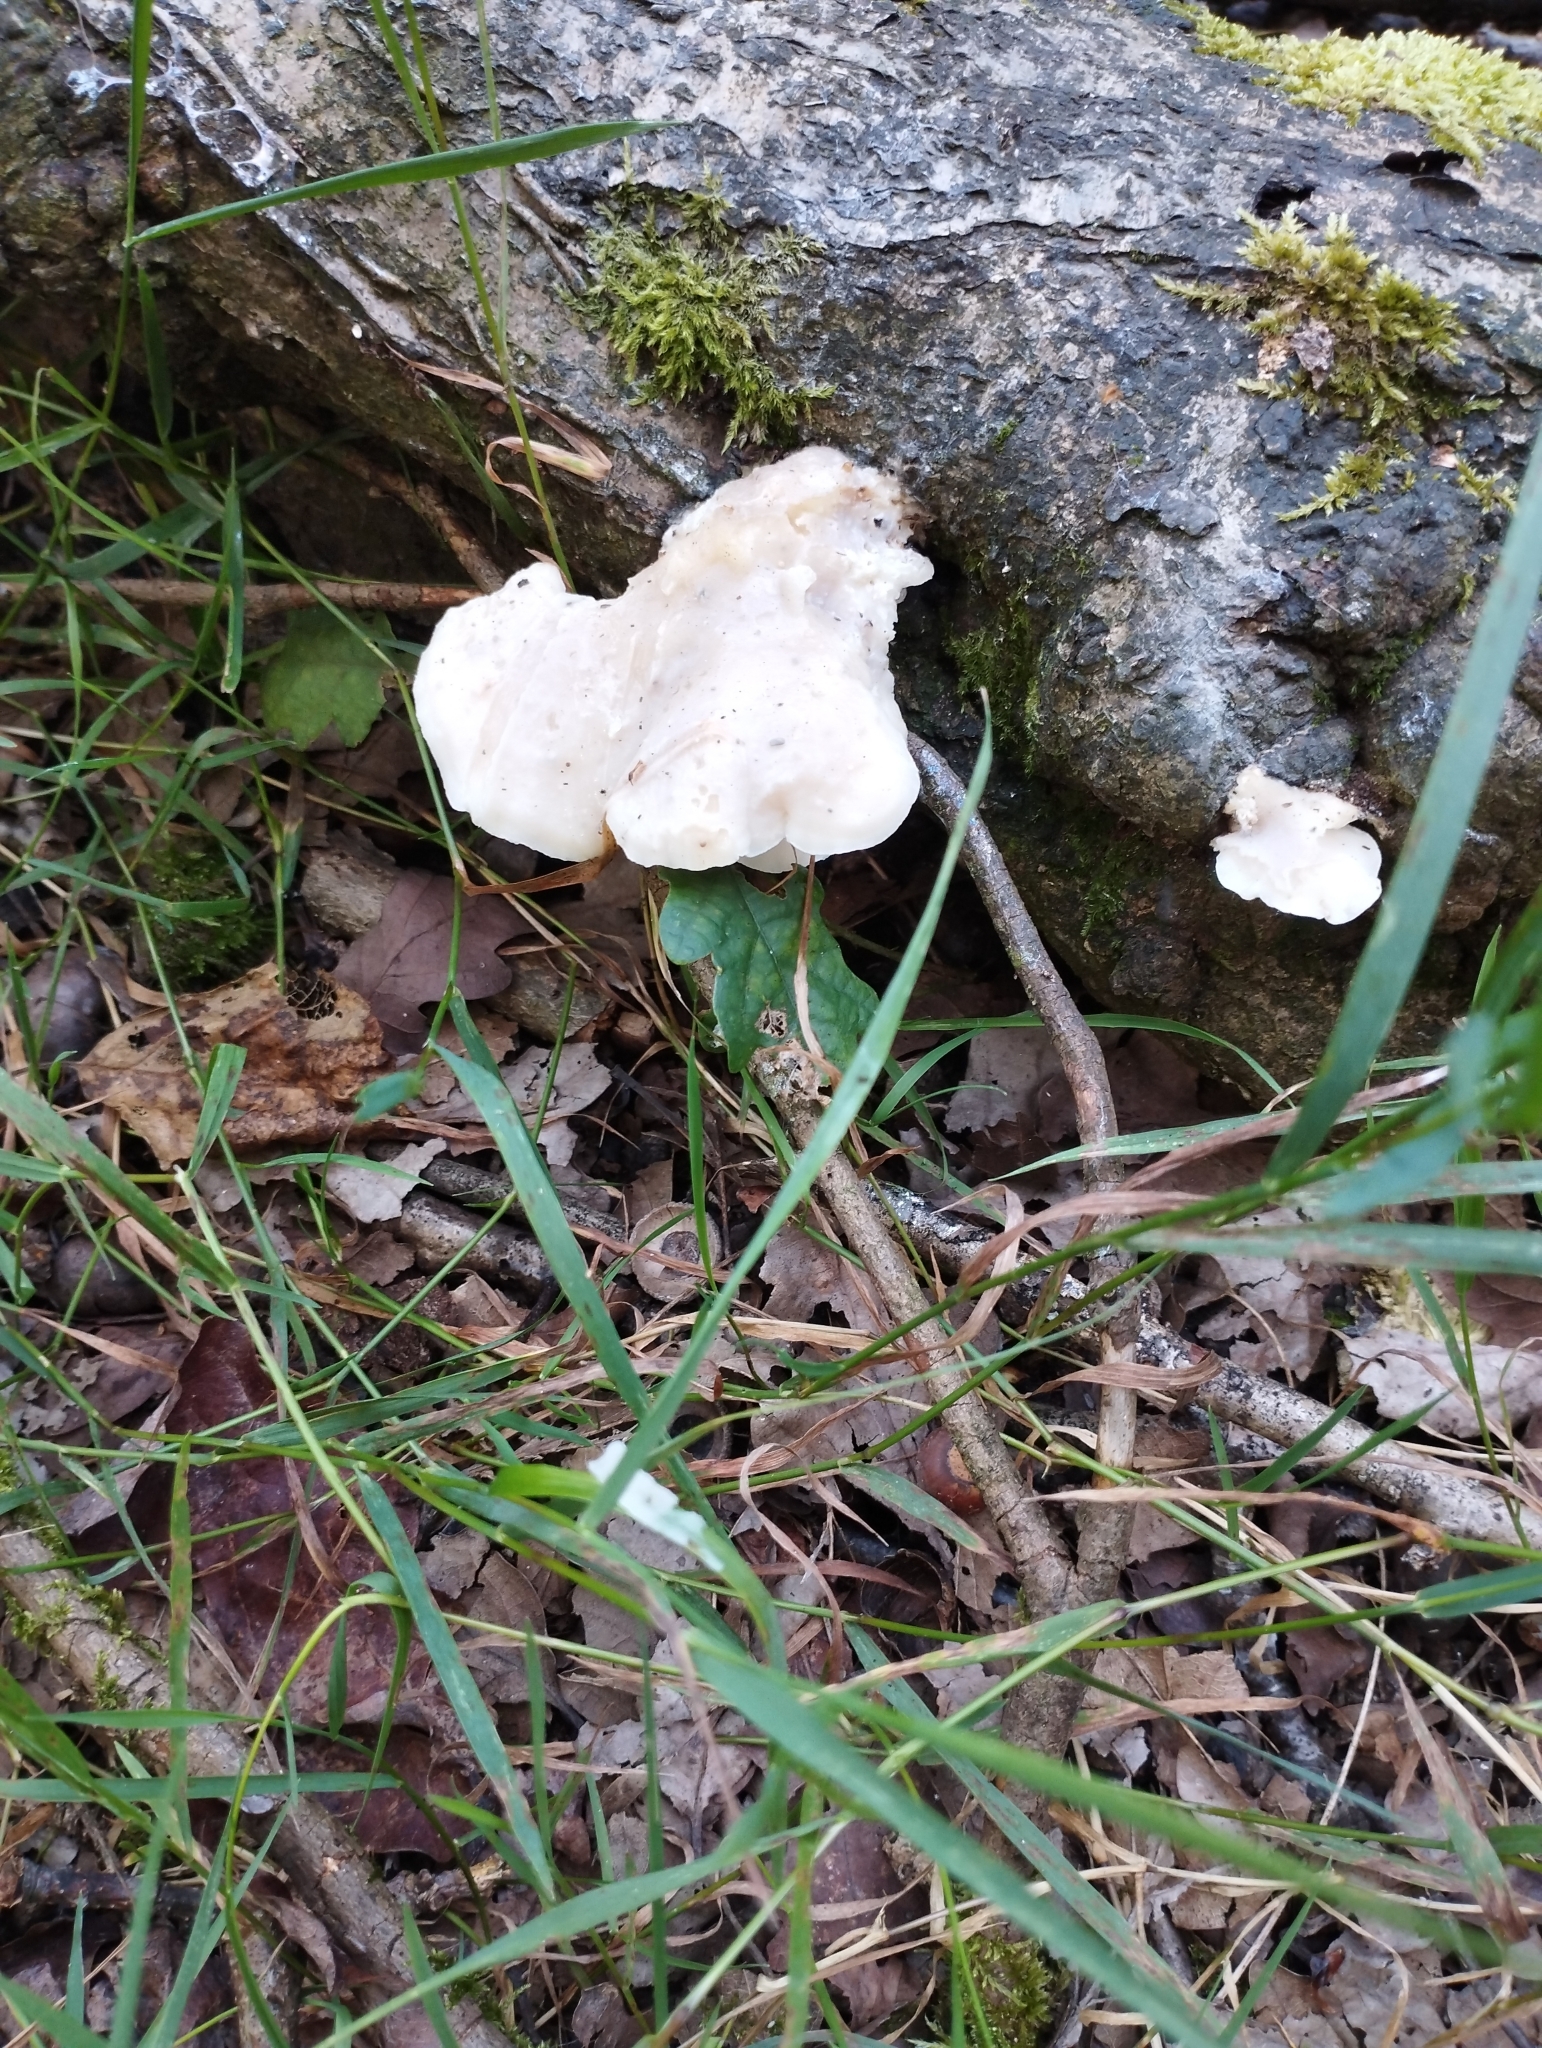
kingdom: Fungi
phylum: Basidiomycota
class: Agaricomycetes
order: Polyporales
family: Incrustoporiaceae
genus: Tyromyces
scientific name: Tyromyces chioneus
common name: White cheese polypore
